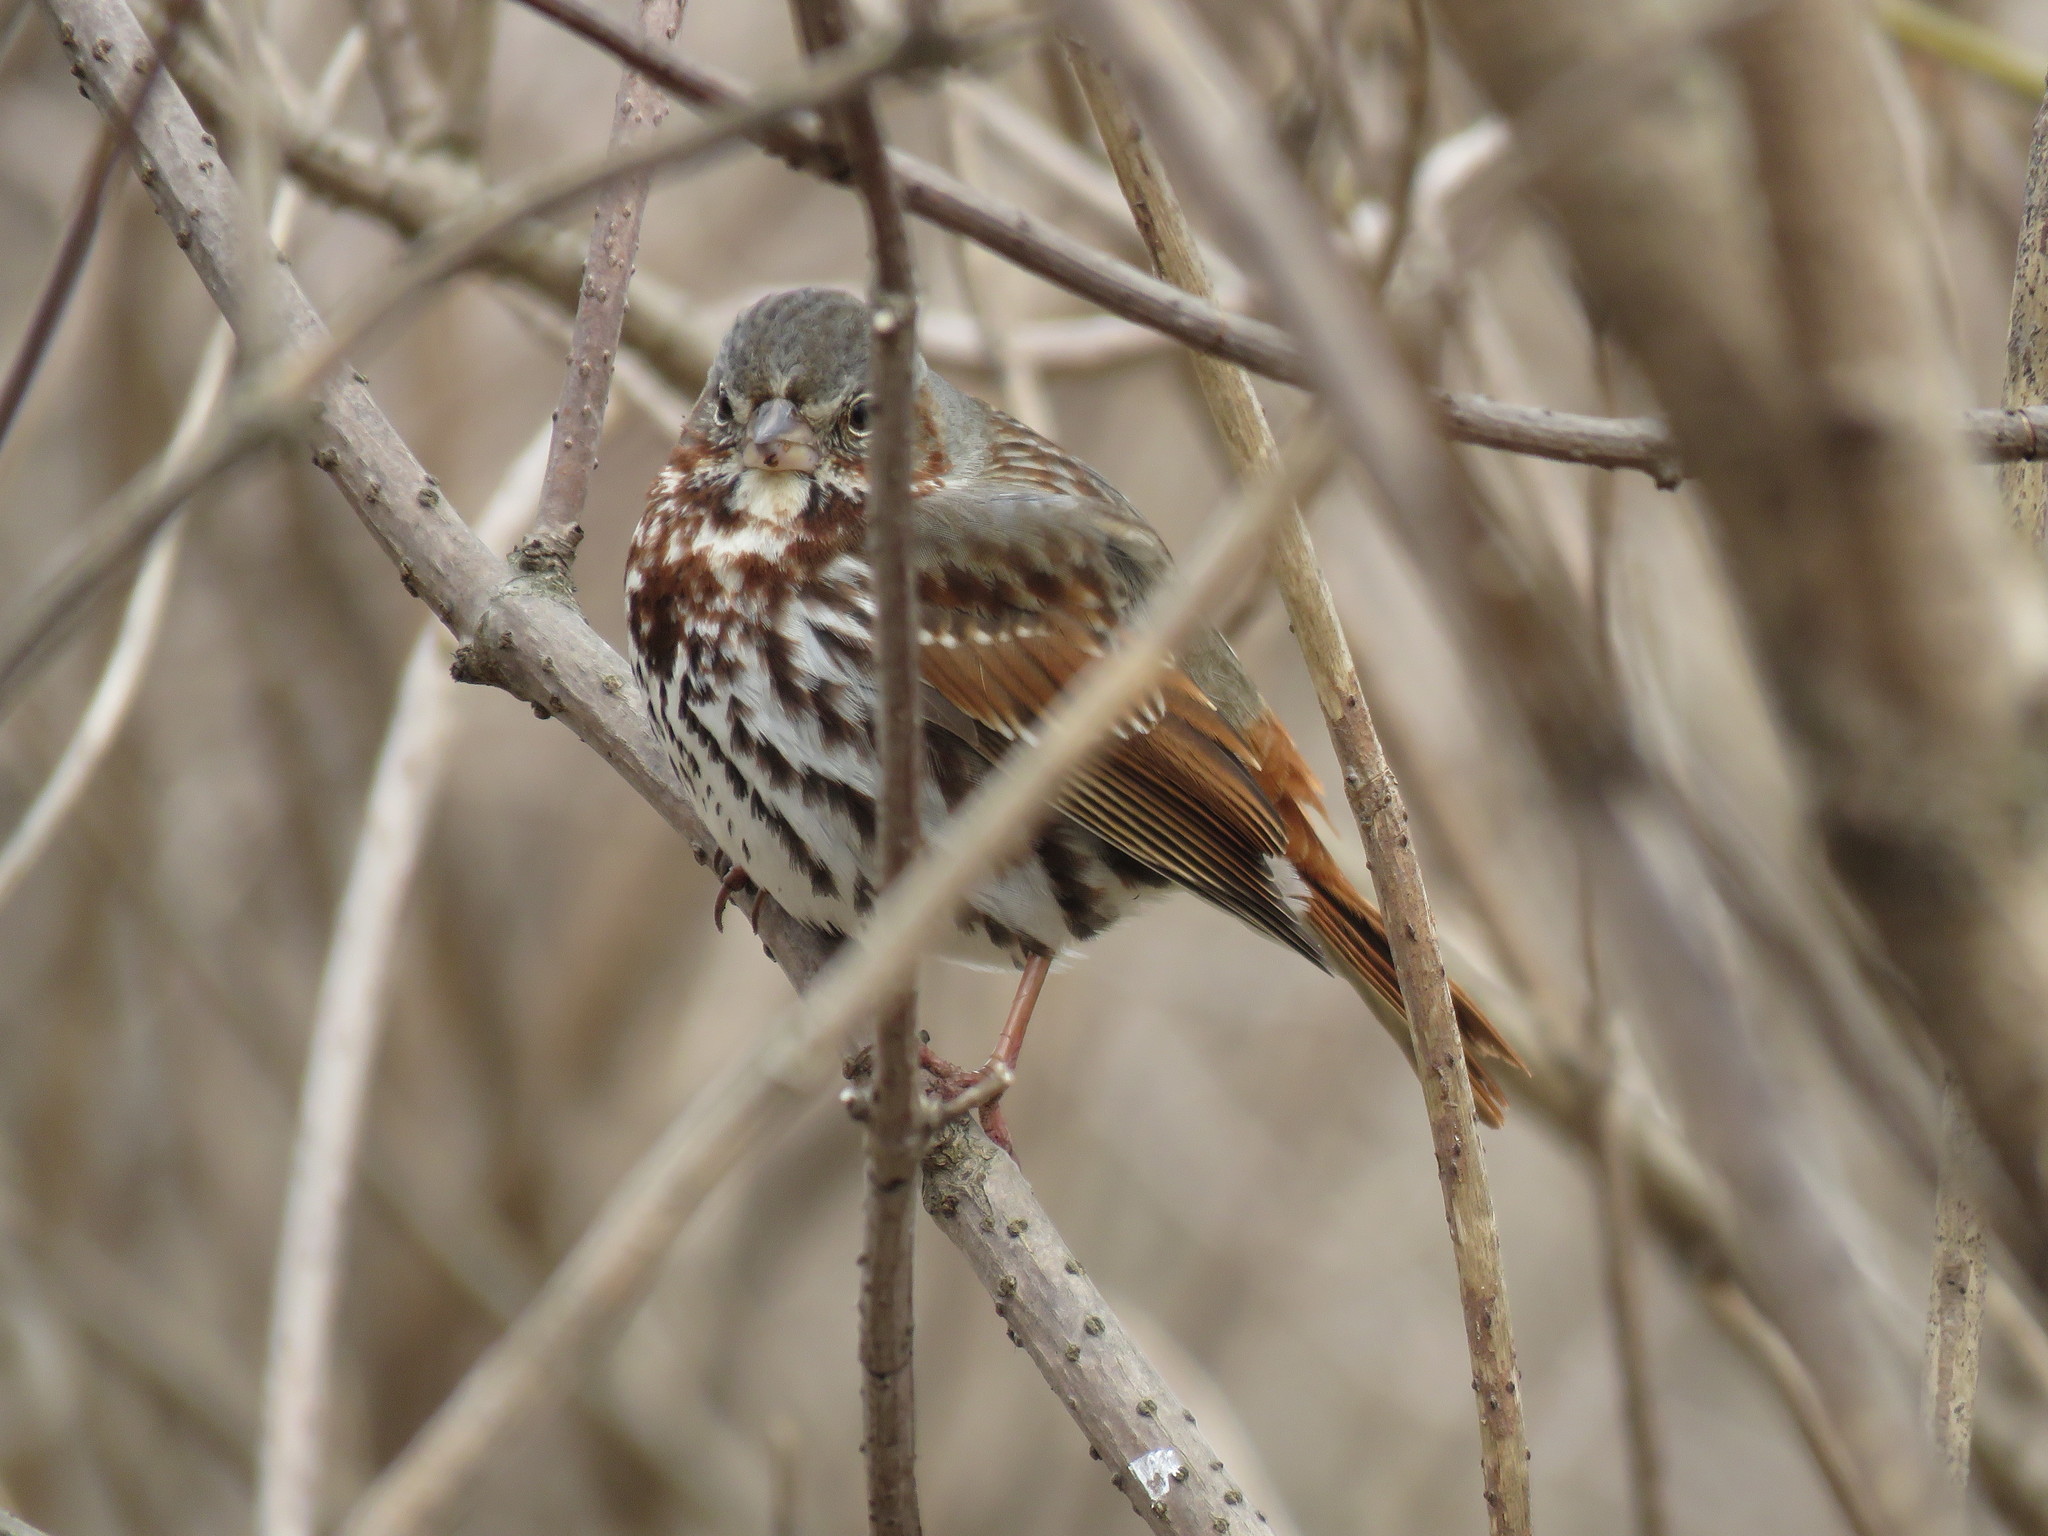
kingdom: Animalia
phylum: Chordata
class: Aves
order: Passeriformes
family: Passerellidae
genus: Passerella
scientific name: Passerella iliaca
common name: Fox sparrow
